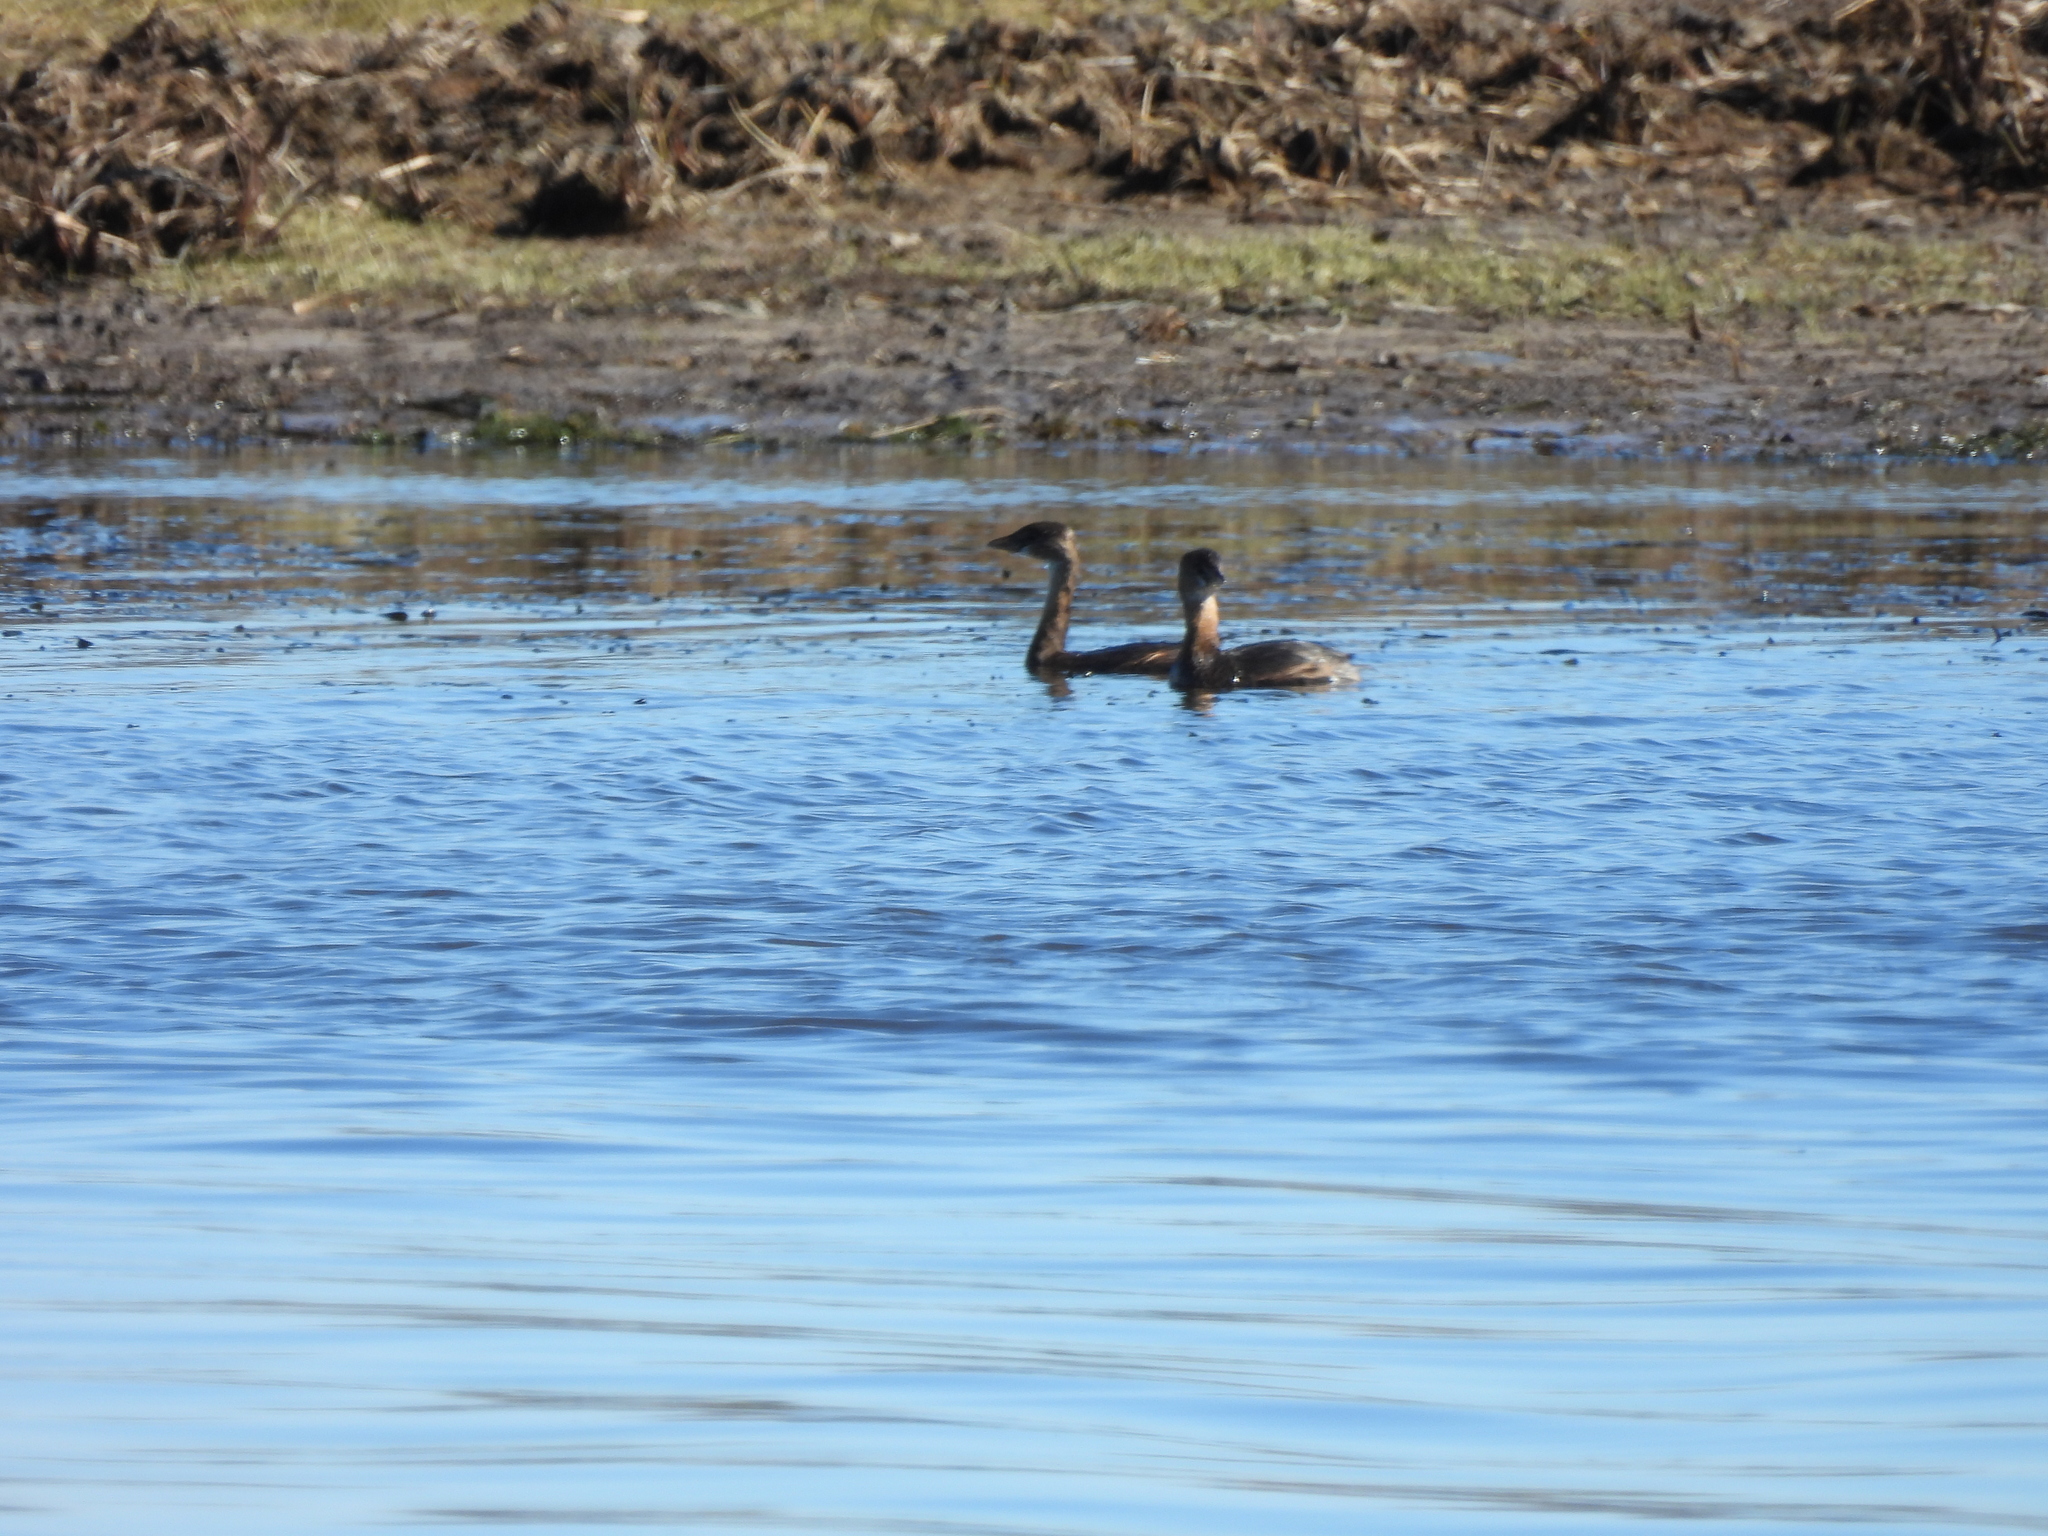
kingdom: Animalia
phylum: Chordata
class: Aves
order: Podicipediformes
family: Podicipedidae
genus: Podilymbus
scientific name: Podilymbus podiceps
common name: Pied-billed grebe
